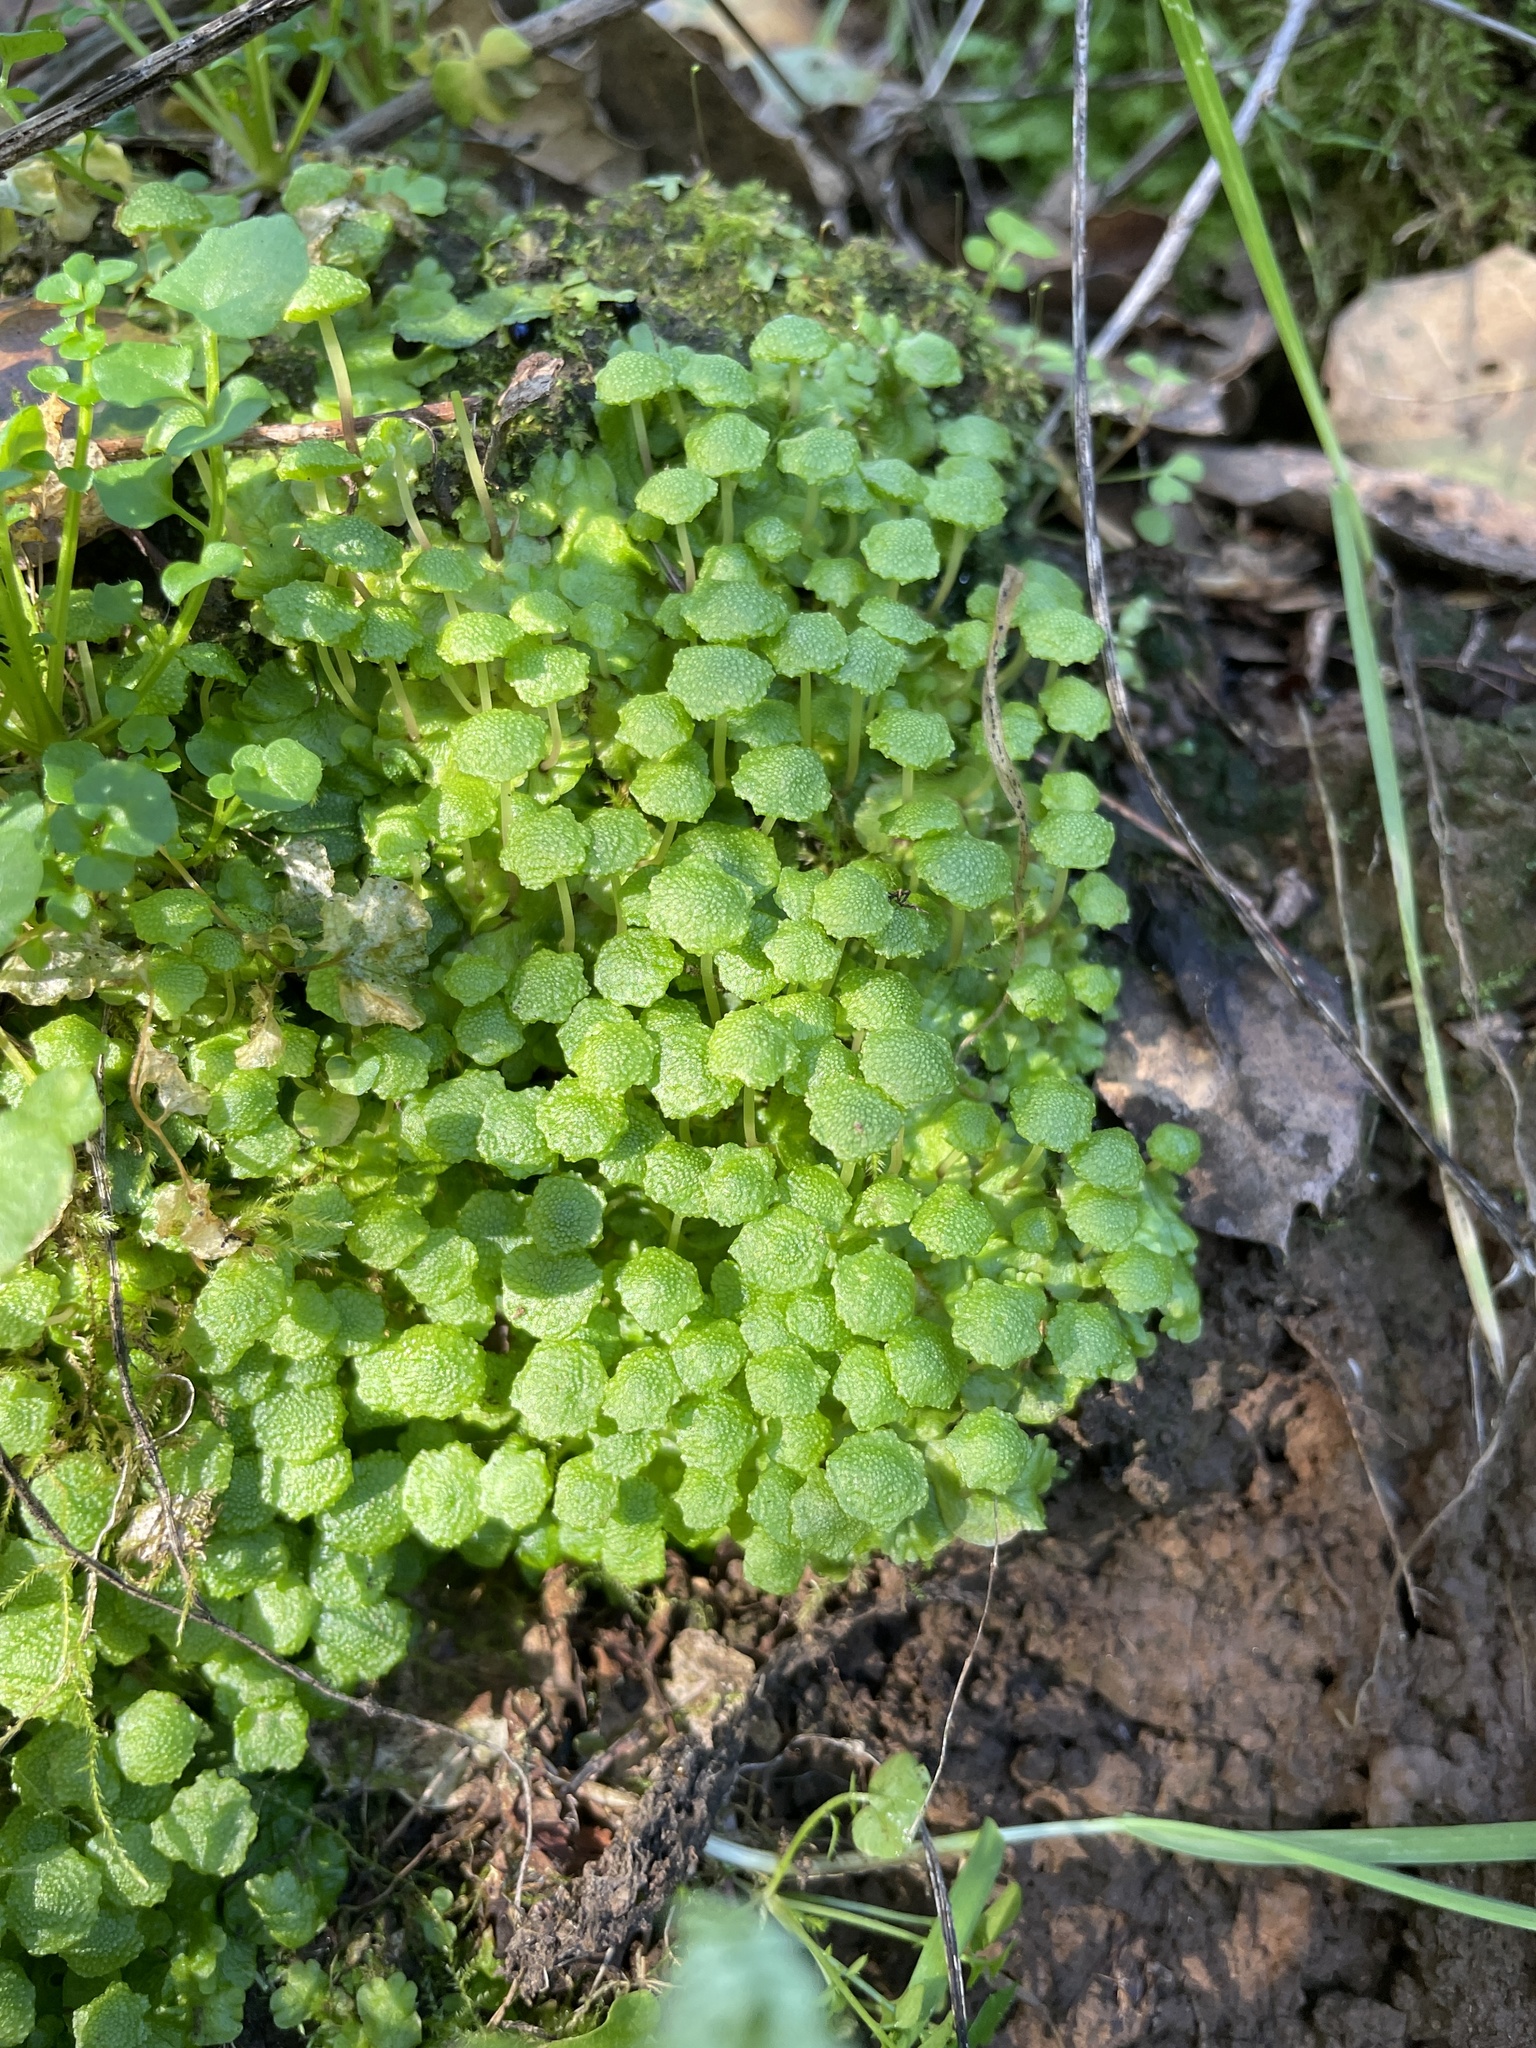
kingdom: Plantae
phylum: Marchantiophyta
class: Marchantiopsida
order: Marchantiales
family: Aytoniaceae
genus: Cryptomitrium
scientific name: Cryptomitrium tenerum
